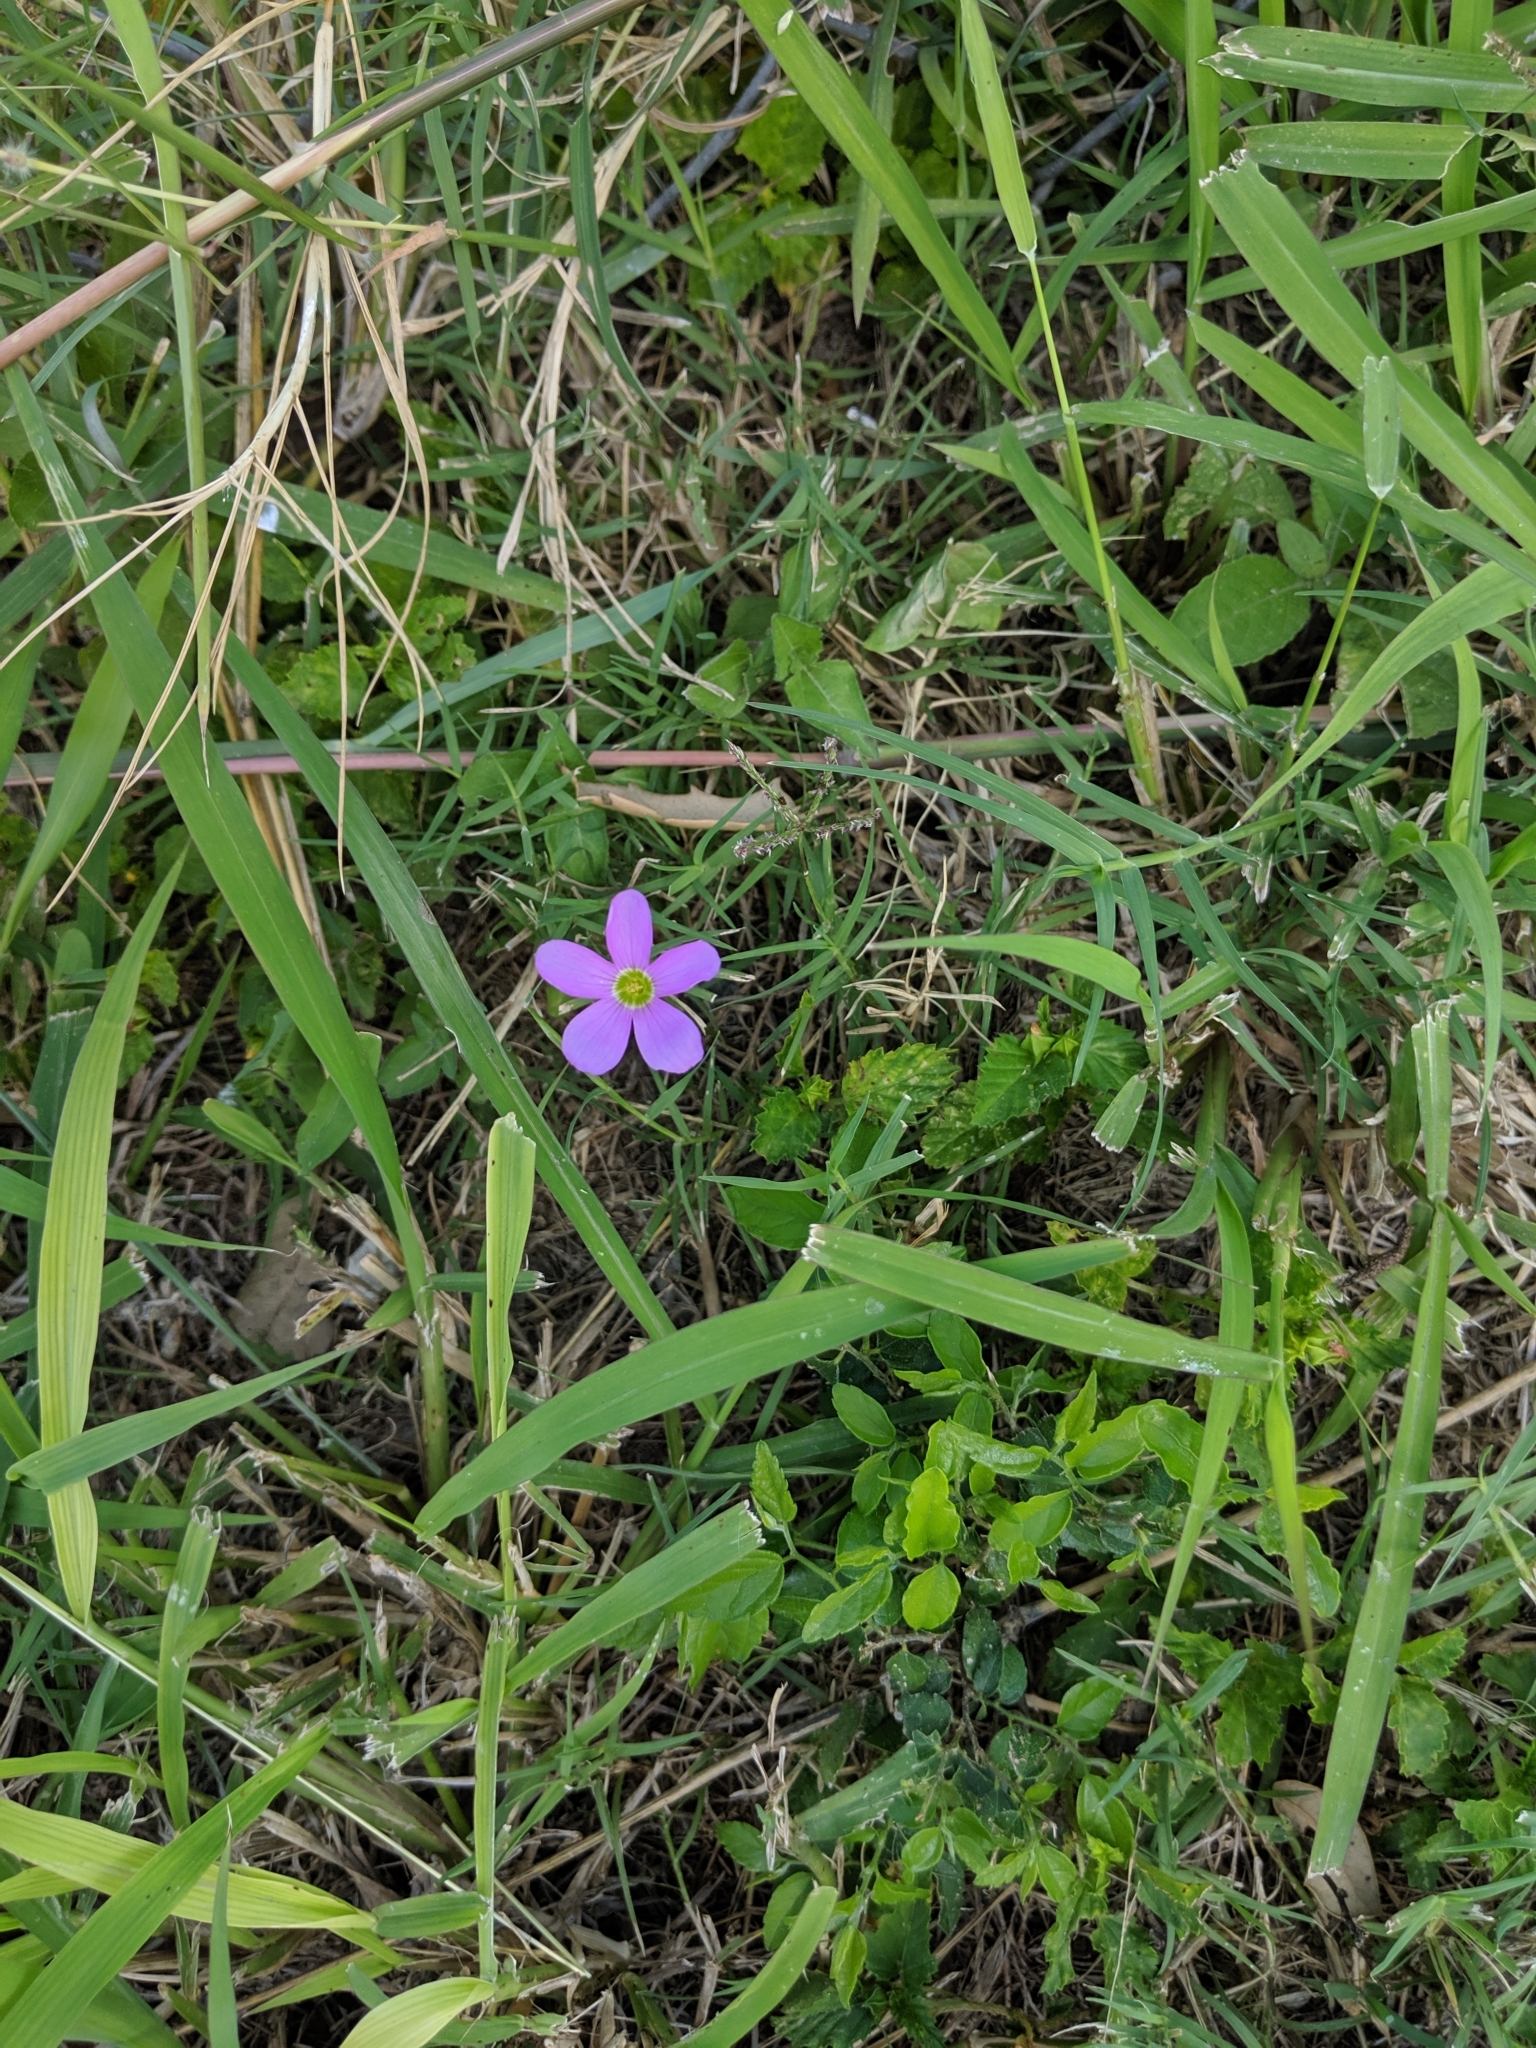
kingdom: Plantae
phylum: Tracheophyta
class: Magnoliopsida
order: Oxalidales
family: Oxalidaceae
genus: Oxalis
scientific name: Oxalis drummondii
